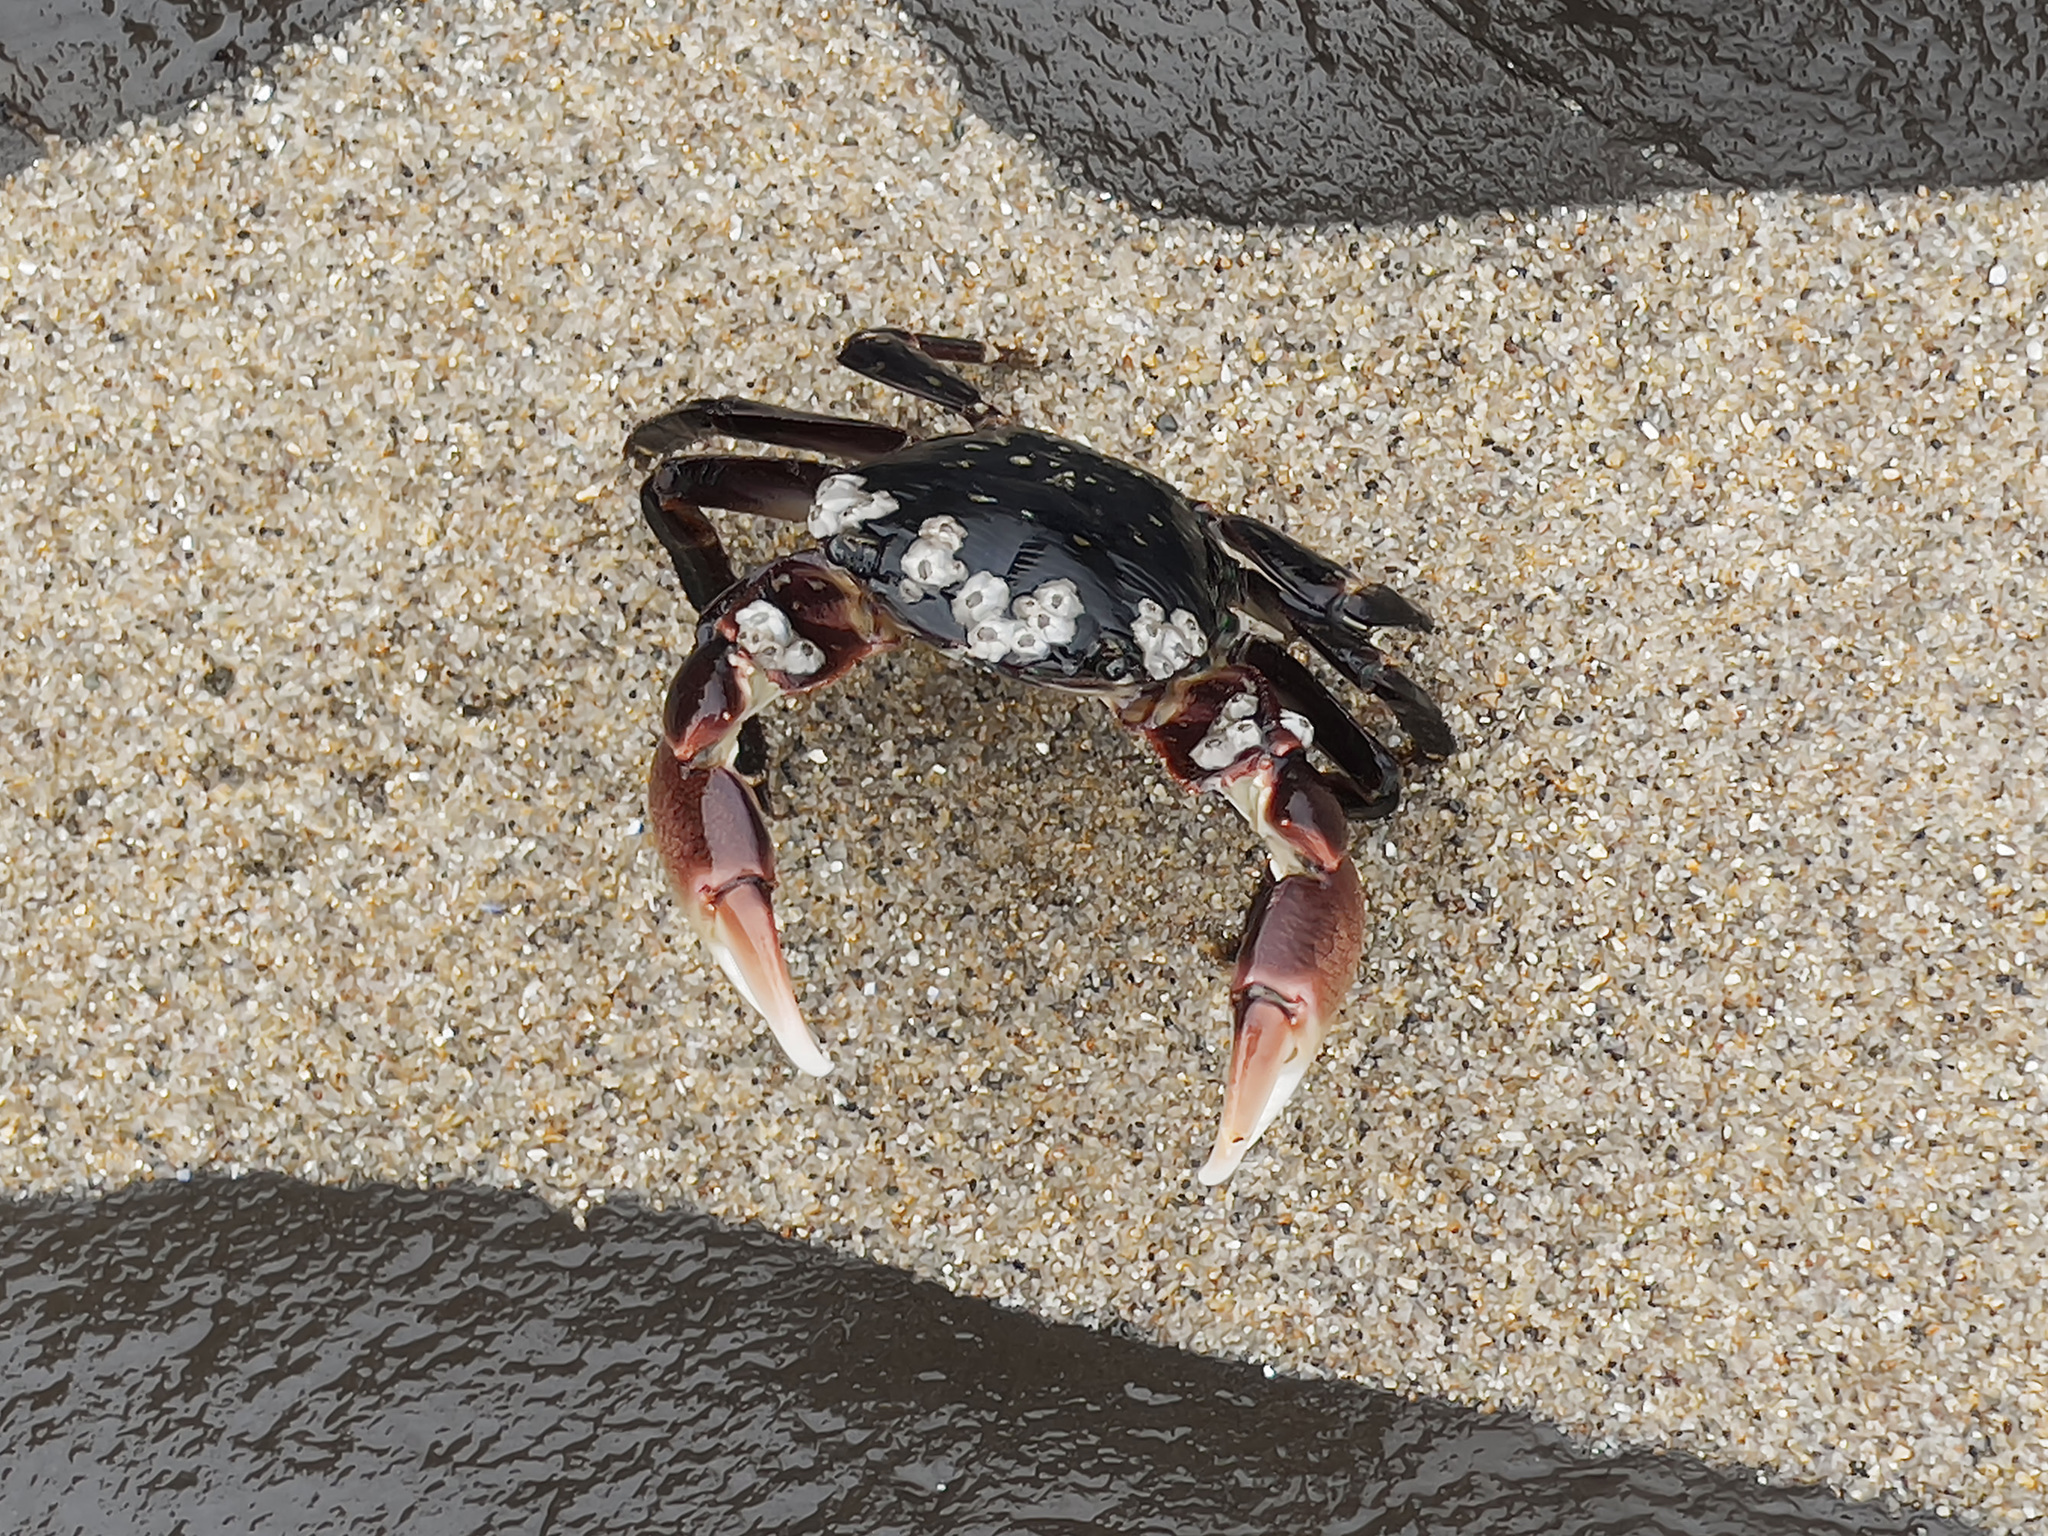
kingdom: Animalia
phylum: Arthropoda
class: Malacostraca
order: Decapoda
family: Grapsidae
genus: Pachygrapsus
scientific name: Pachygrapsus crassipes
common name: Striped shore crab
